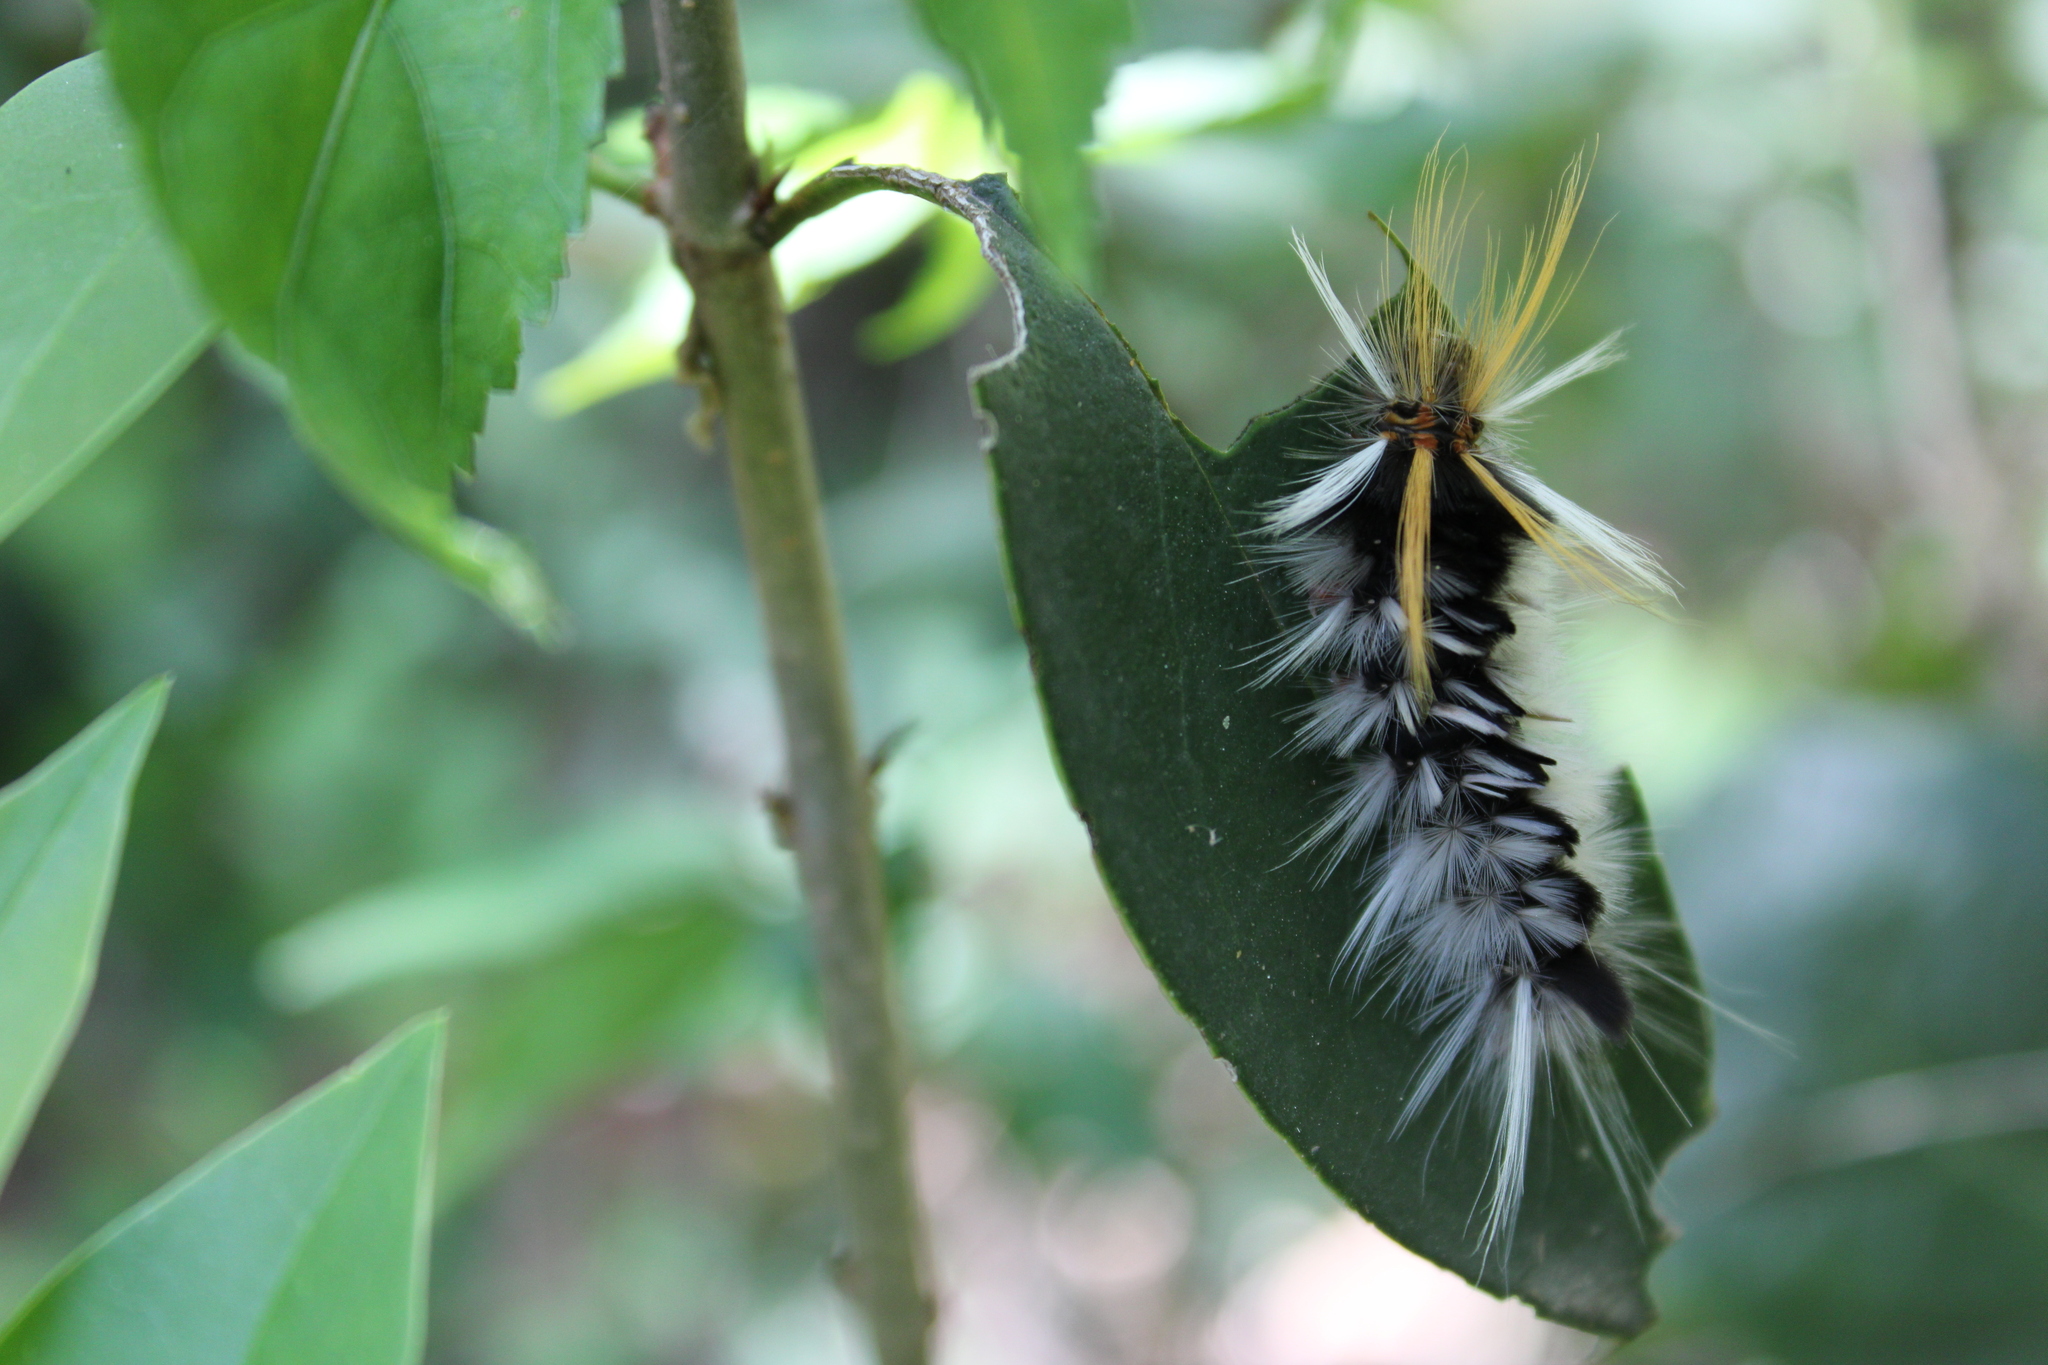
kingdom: Animalia
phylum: Arthropoda
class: Insecta
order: Lepidoptera
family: Erebidae
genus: Halysidota
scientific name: Halysidota ruscheweyhi
